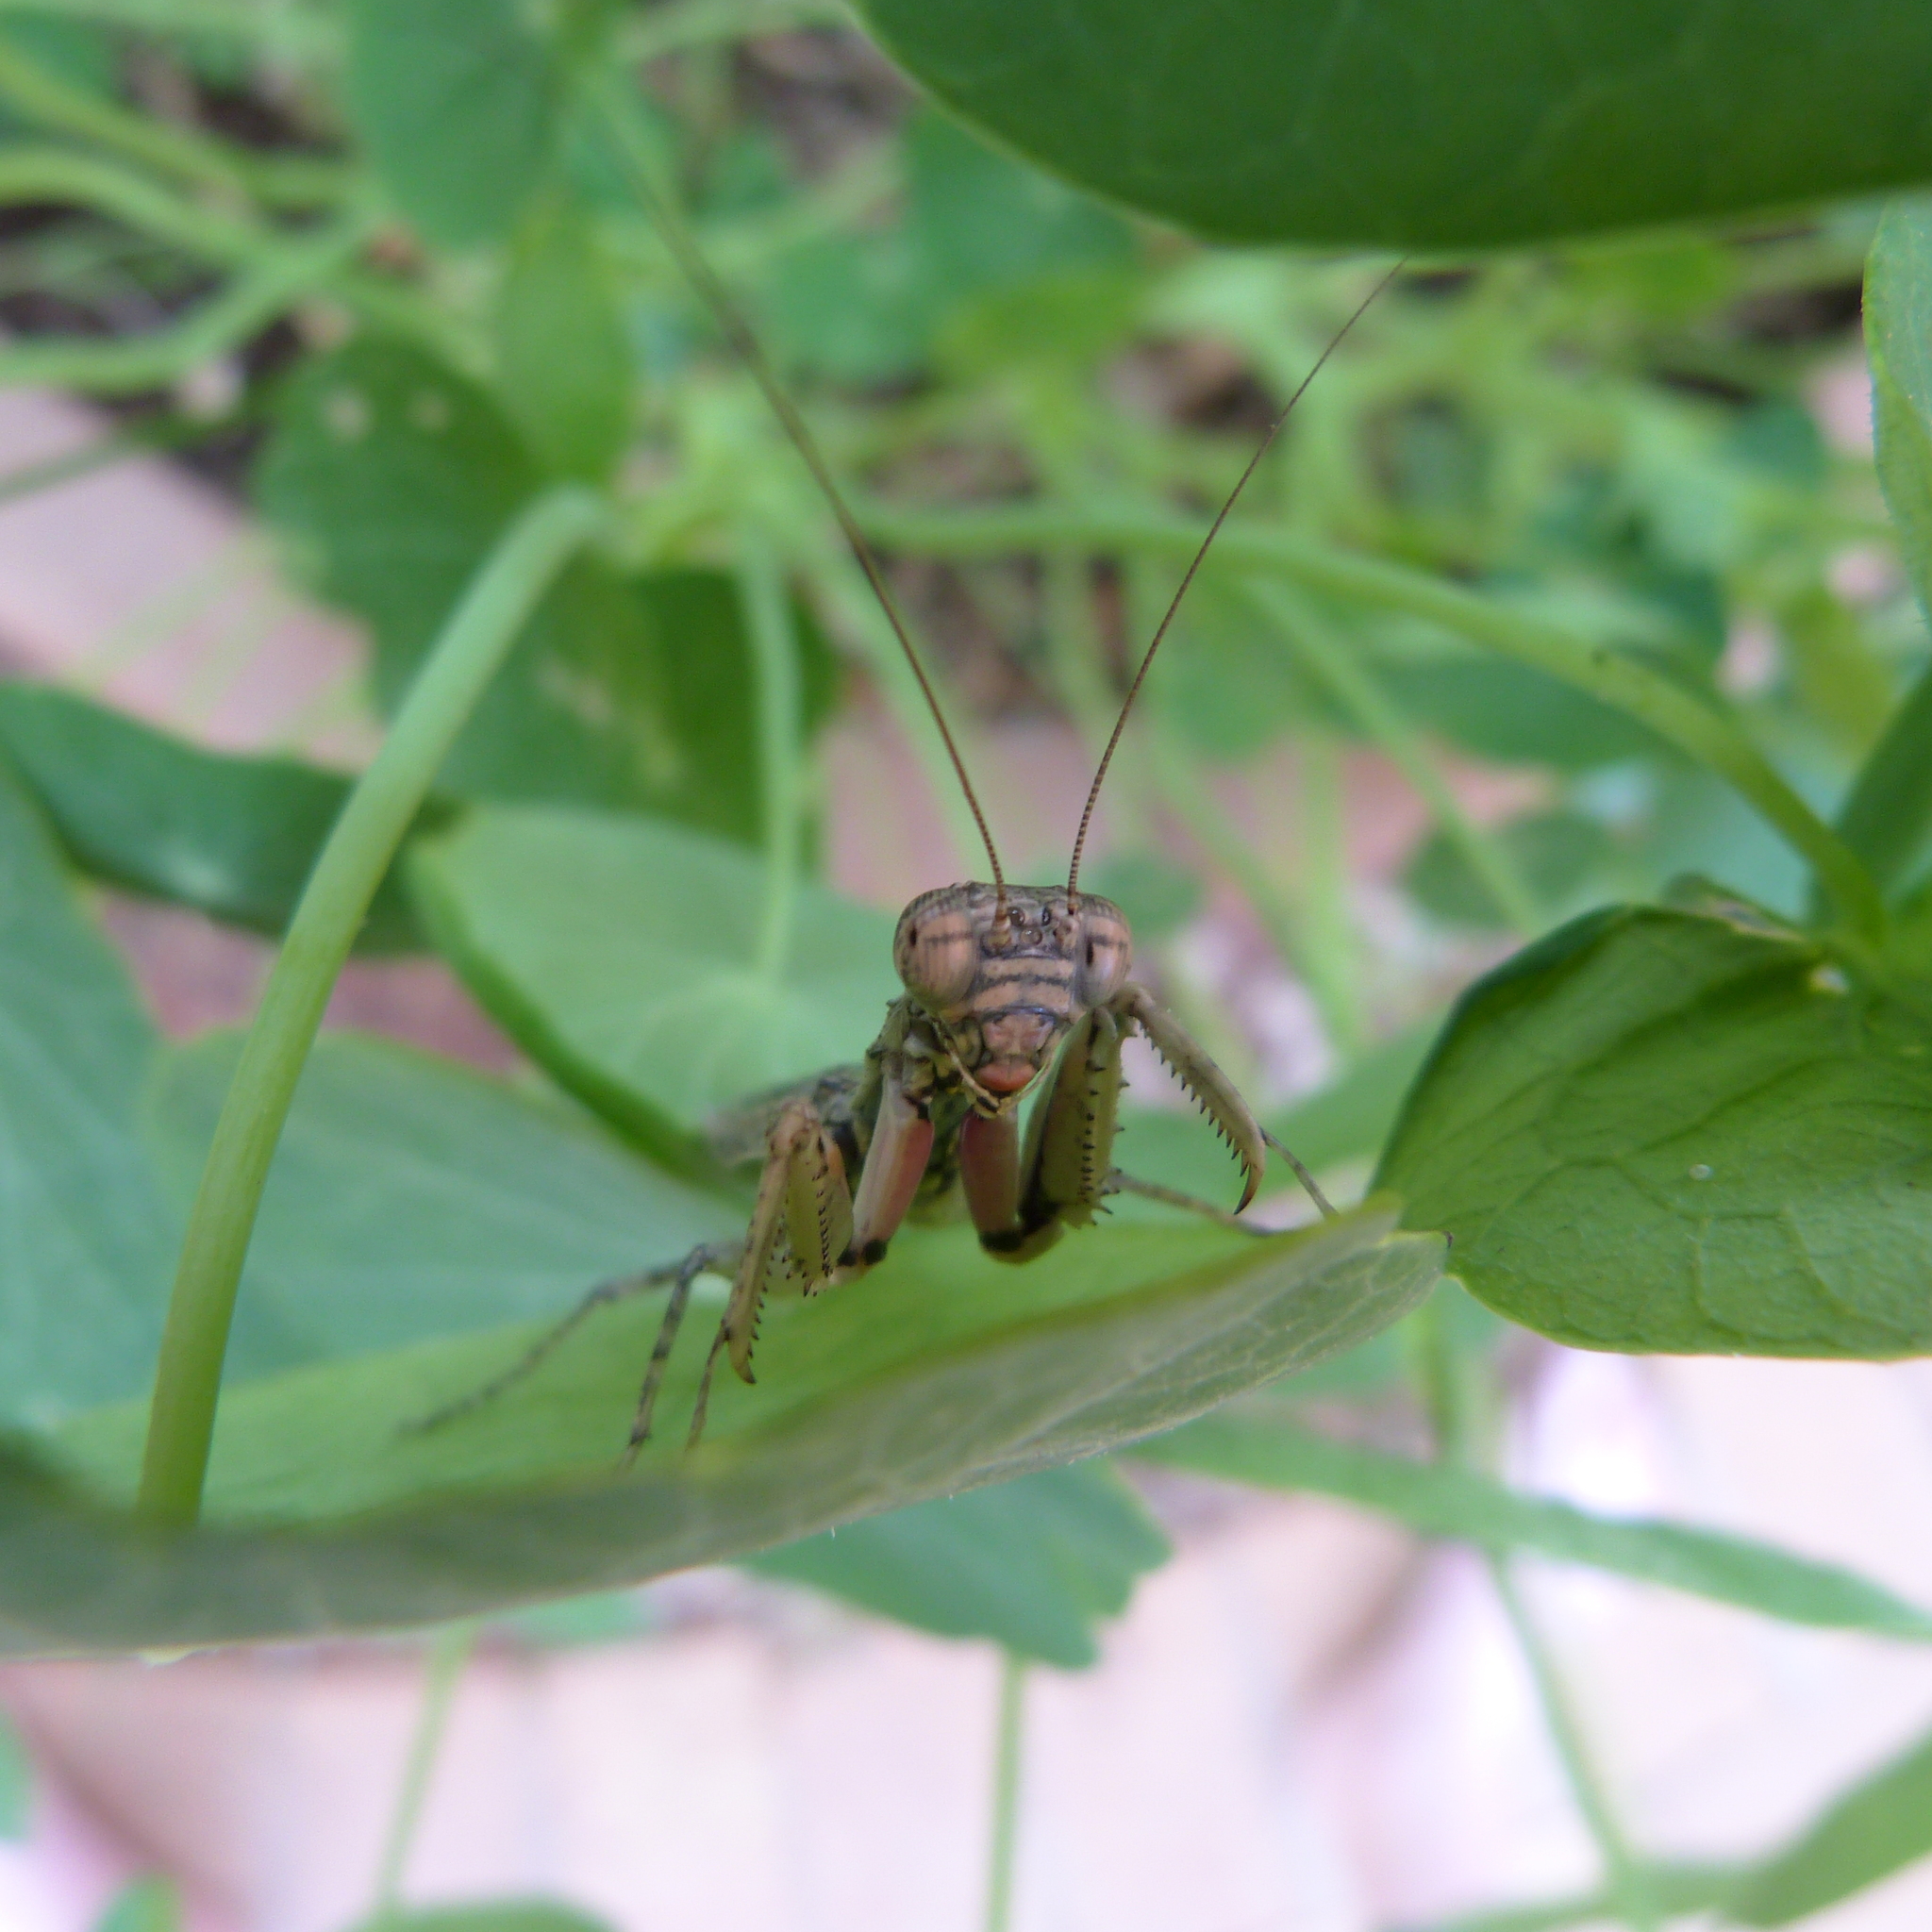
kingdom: Animalia
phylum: Arthropoda
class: Insecta
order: Mantodea
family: Eremiaphilidae
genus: Tarachodes
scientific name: Tarachodes sanctus
